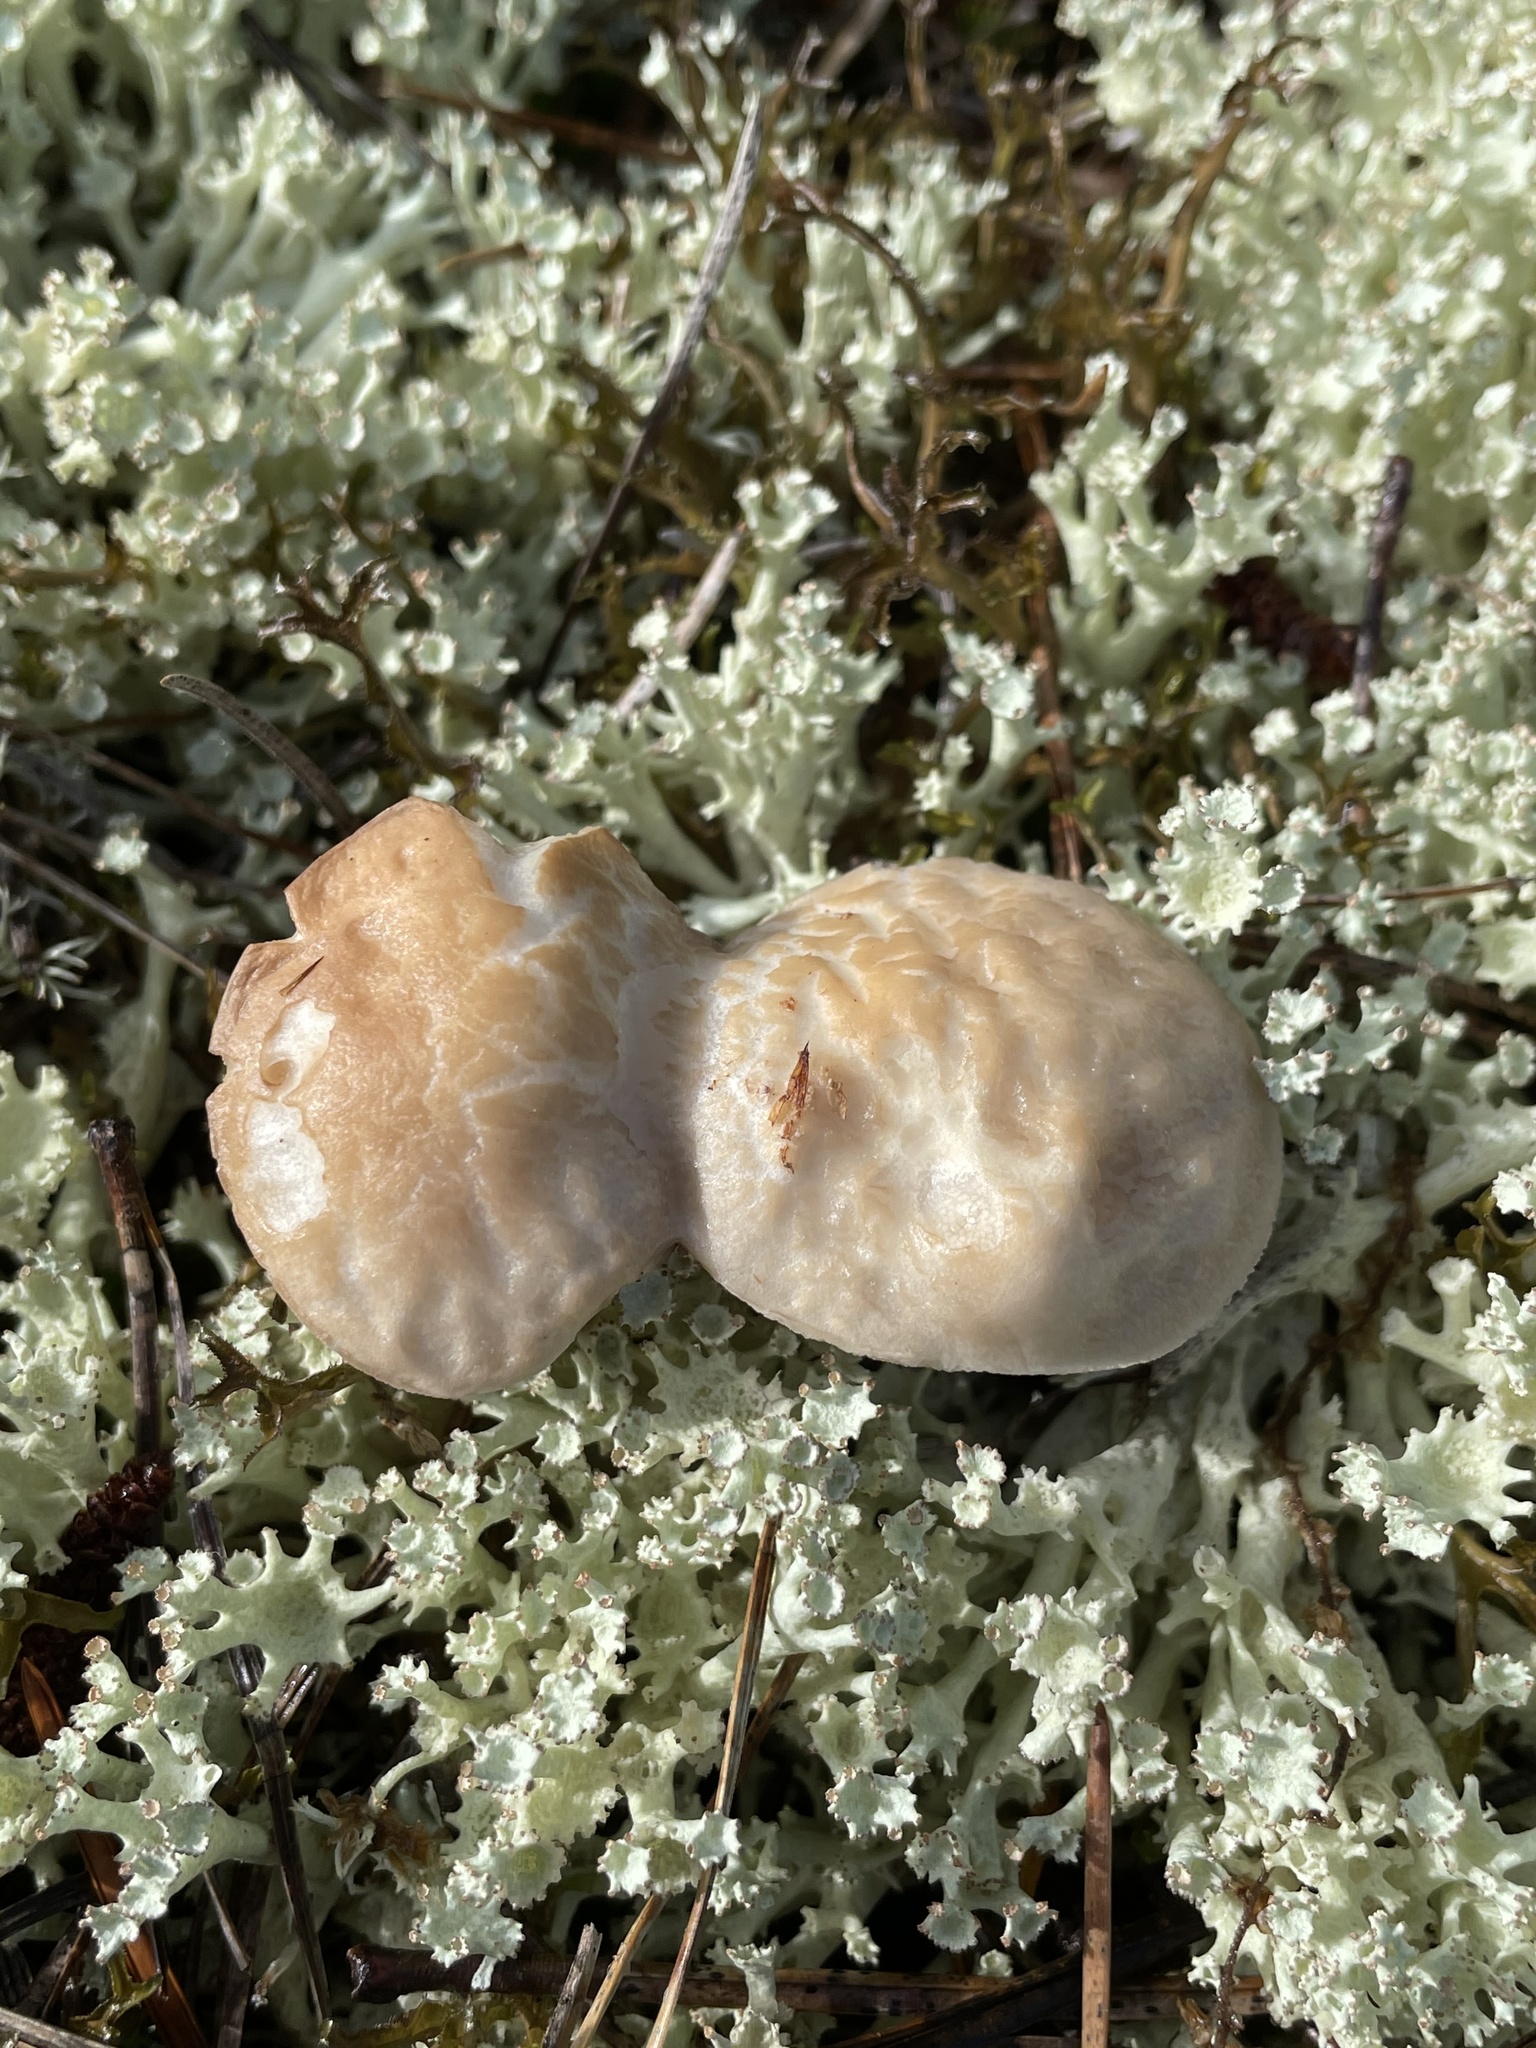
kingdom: Fungi
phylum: Basidiomycota
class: Agaricomycetes
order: Boletales
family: Boletaceae
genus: Leccinellum
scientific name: Leccinellum albellum
